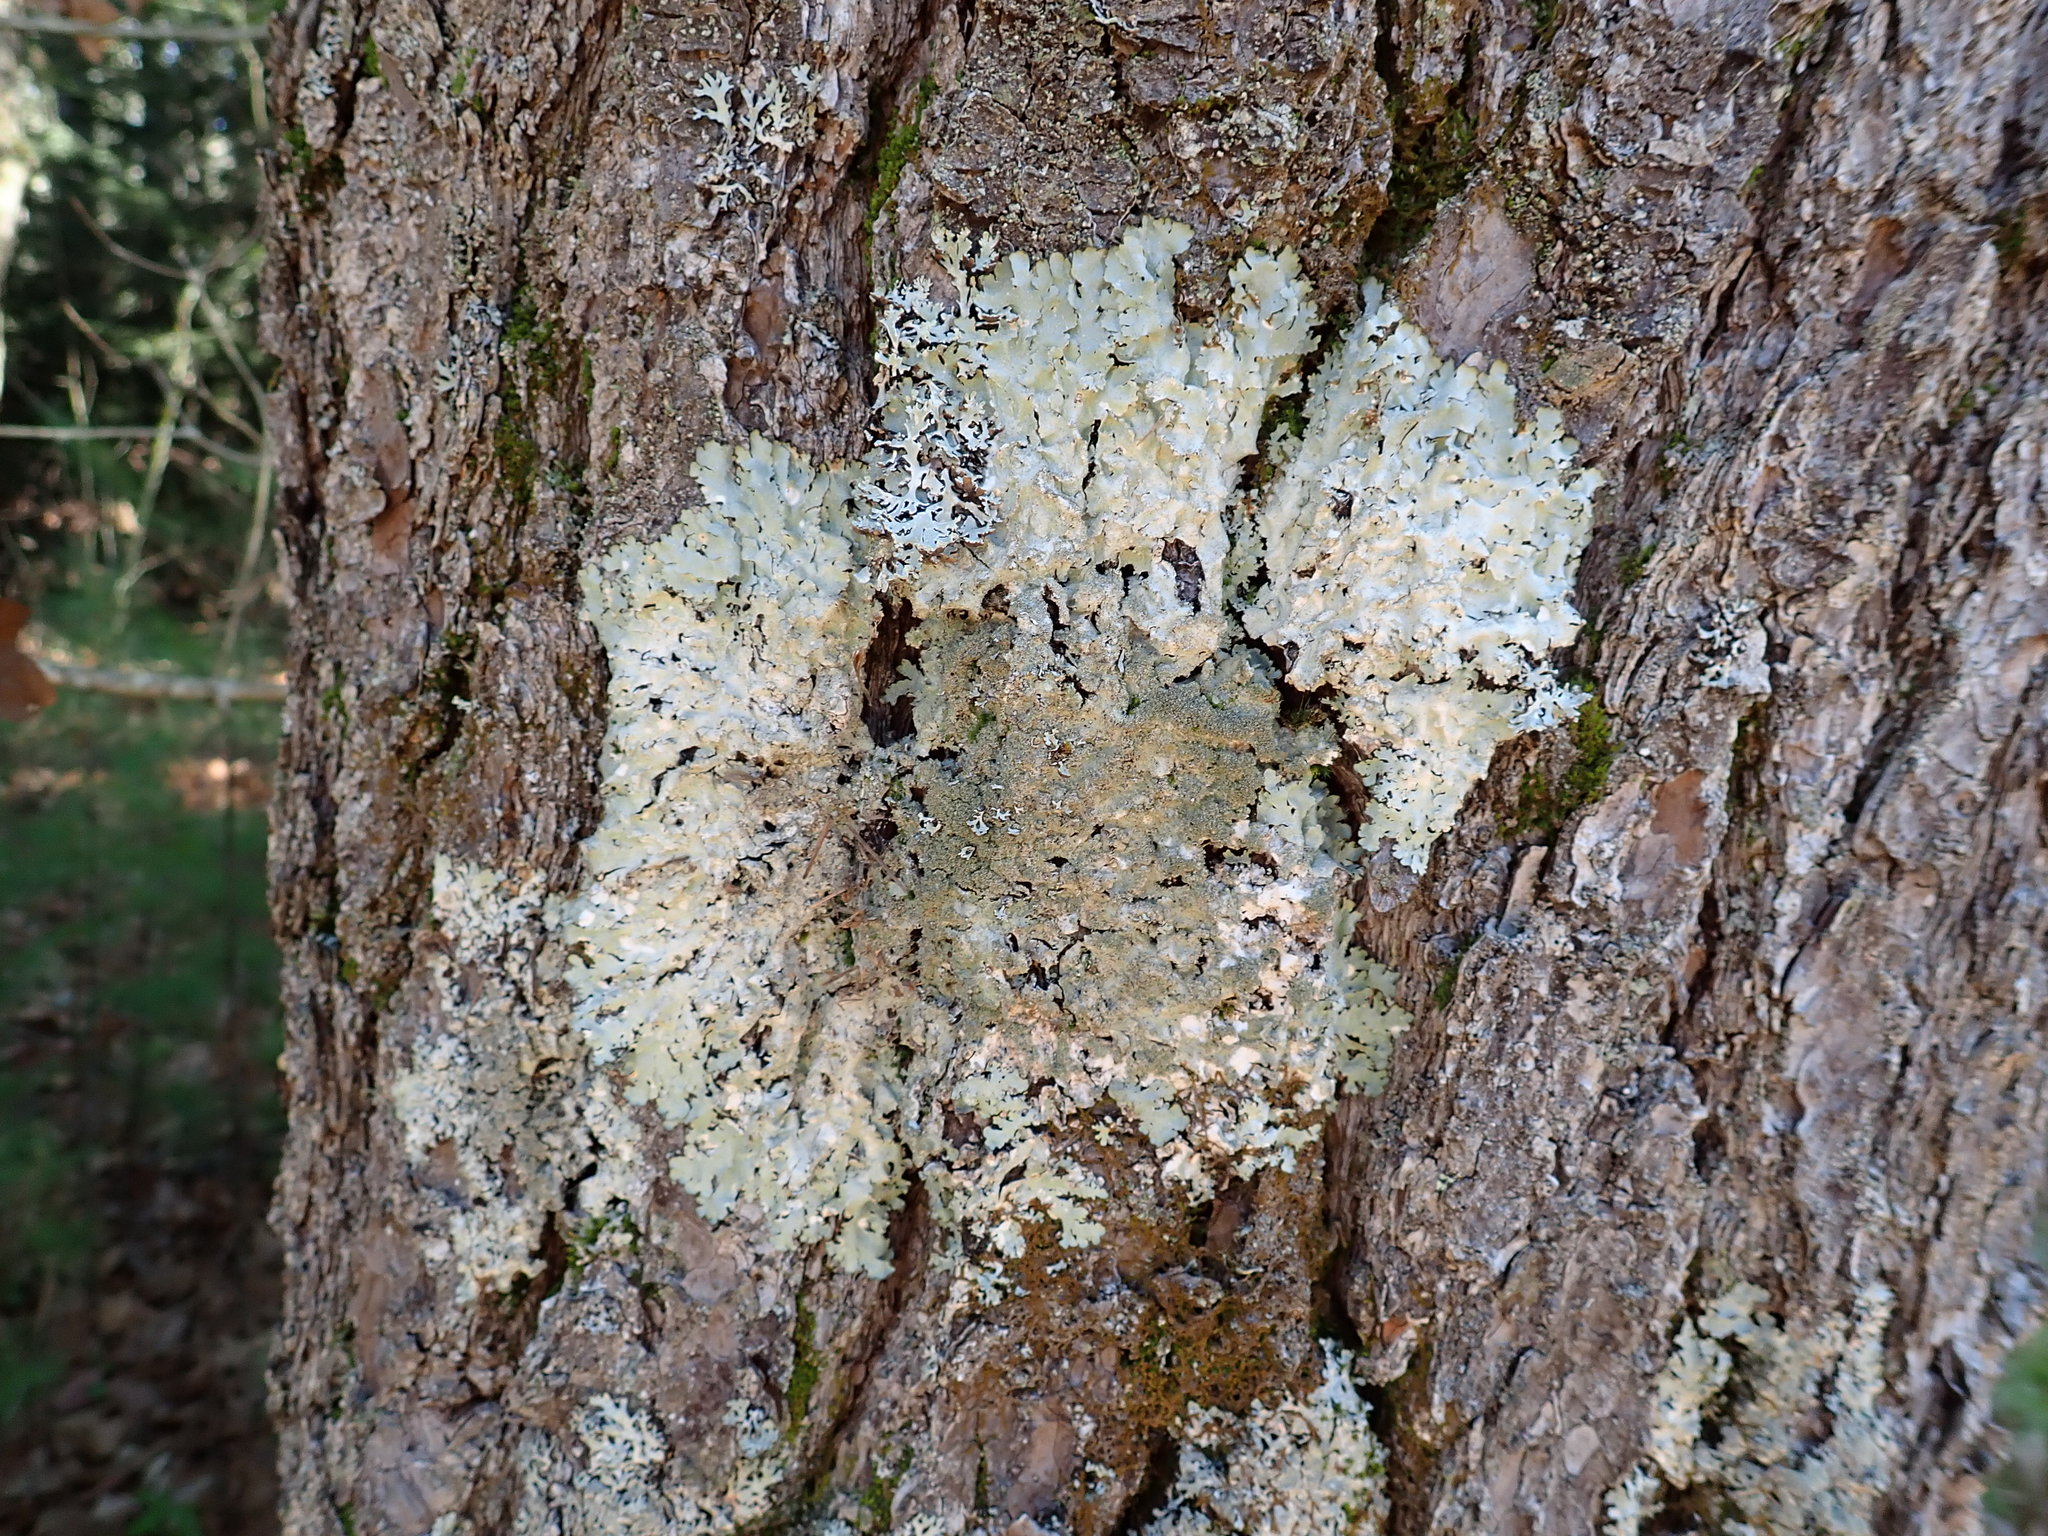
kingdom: Fungi
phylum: Ascomycota
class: Lecanoromycetes
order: Lecanorales
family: Parmeliaceae
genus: Flavoparmelia
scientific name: Flavoparmelia caperata
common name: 40-mile per hour lichen
